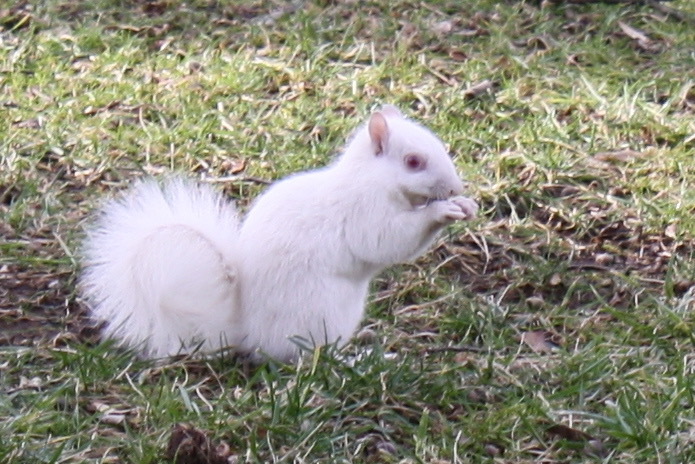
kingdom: Animalia
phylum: Chordata
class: Mammalia
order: Rodentia
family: Sciuridae
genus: Sciurus
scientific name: Sciurus carolinensis
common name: Eastern gray squirrel
